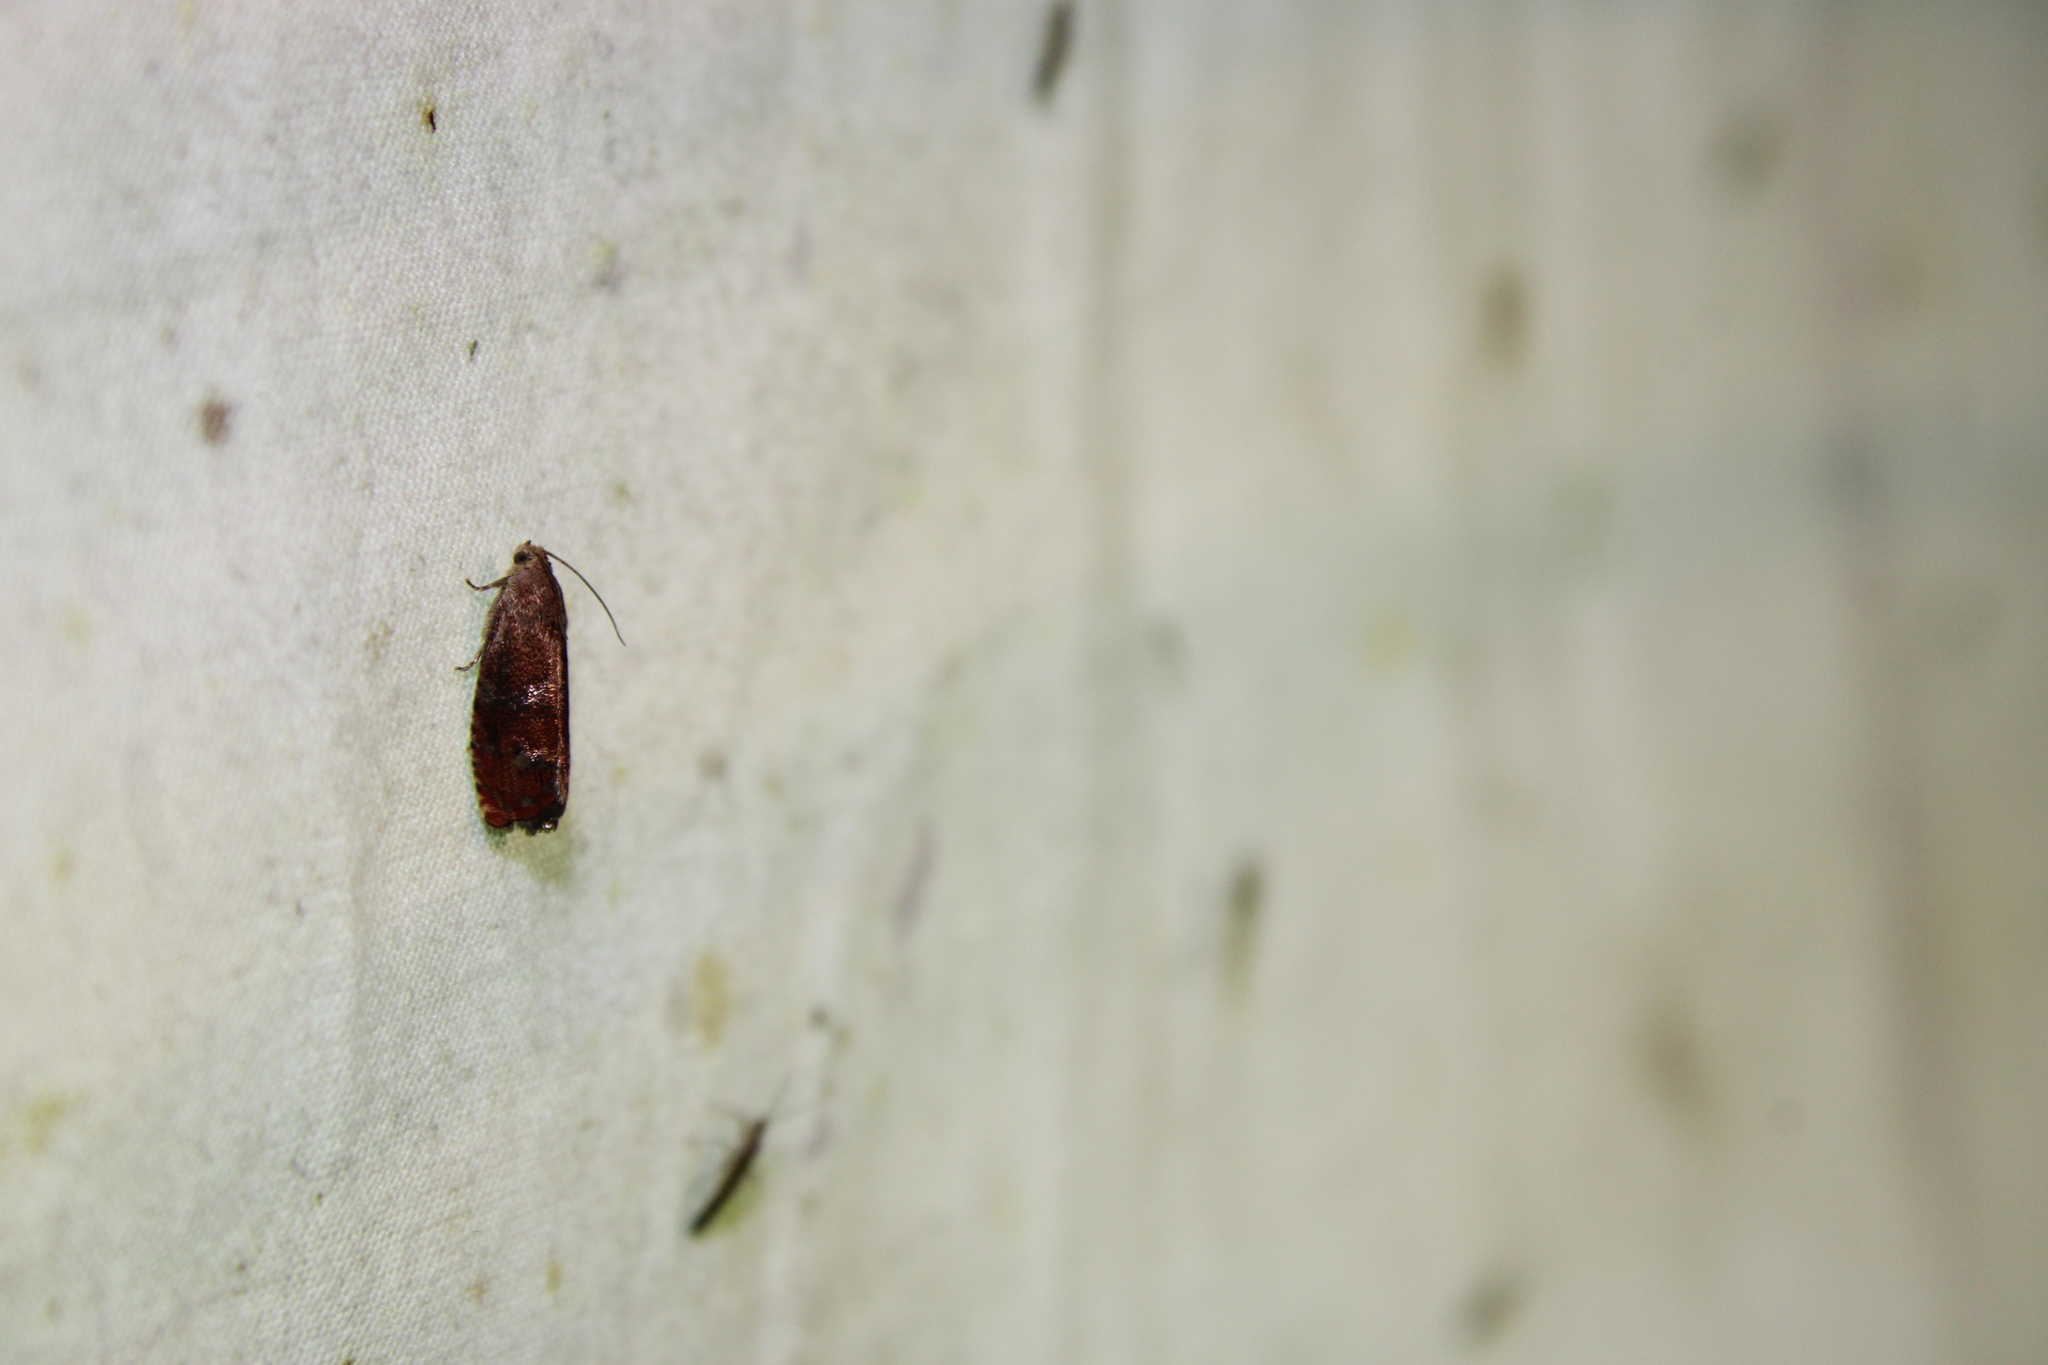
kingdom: Animalia
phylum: Arthropoda
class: Insecta
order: Lepidoptera
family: Tortricidae
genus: Cydia
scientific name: Cydia latiferreana
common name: Filbertworm moth
